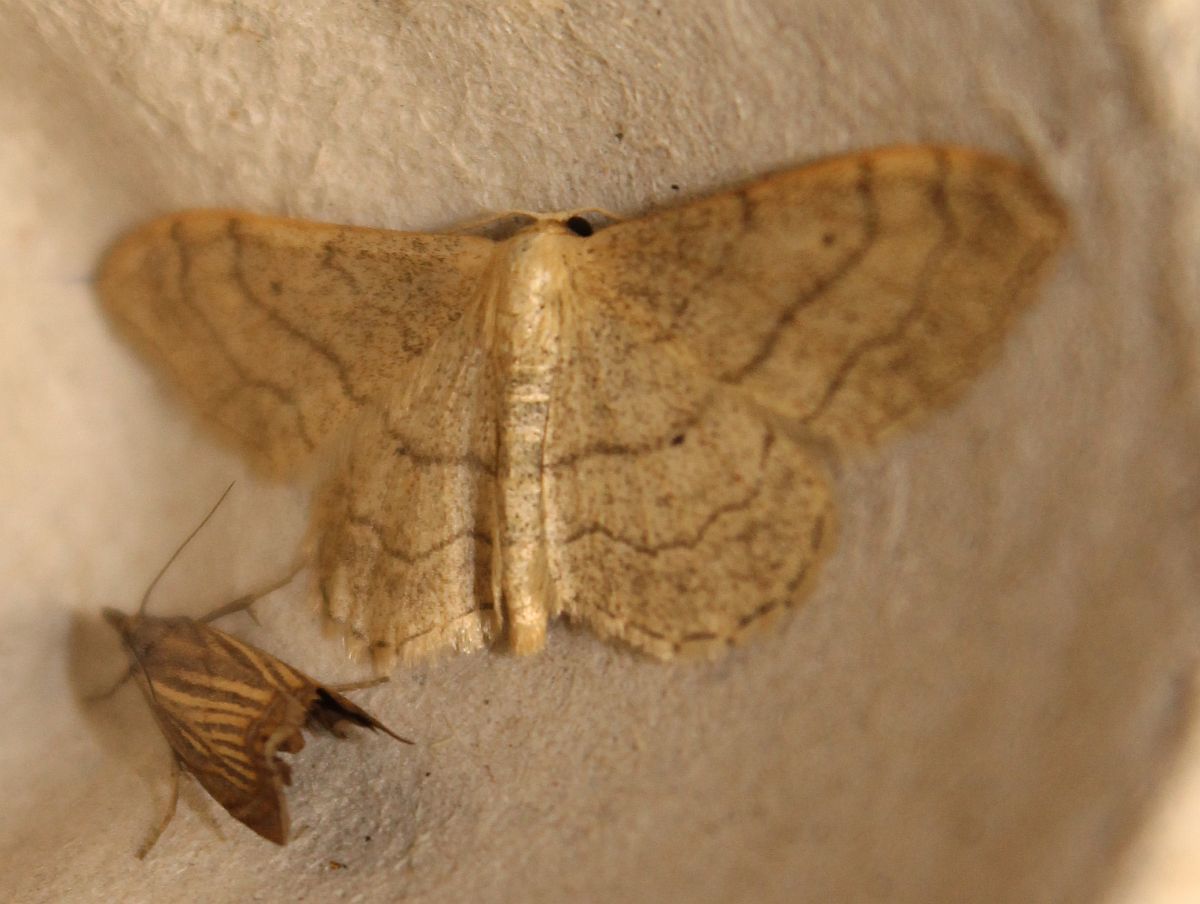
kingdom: Animalia
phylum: Arthropoda
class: Insecta
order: Lepidoptera
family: Geometridae
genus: Idaea
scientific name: Idaea aversata
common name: Riband wave
